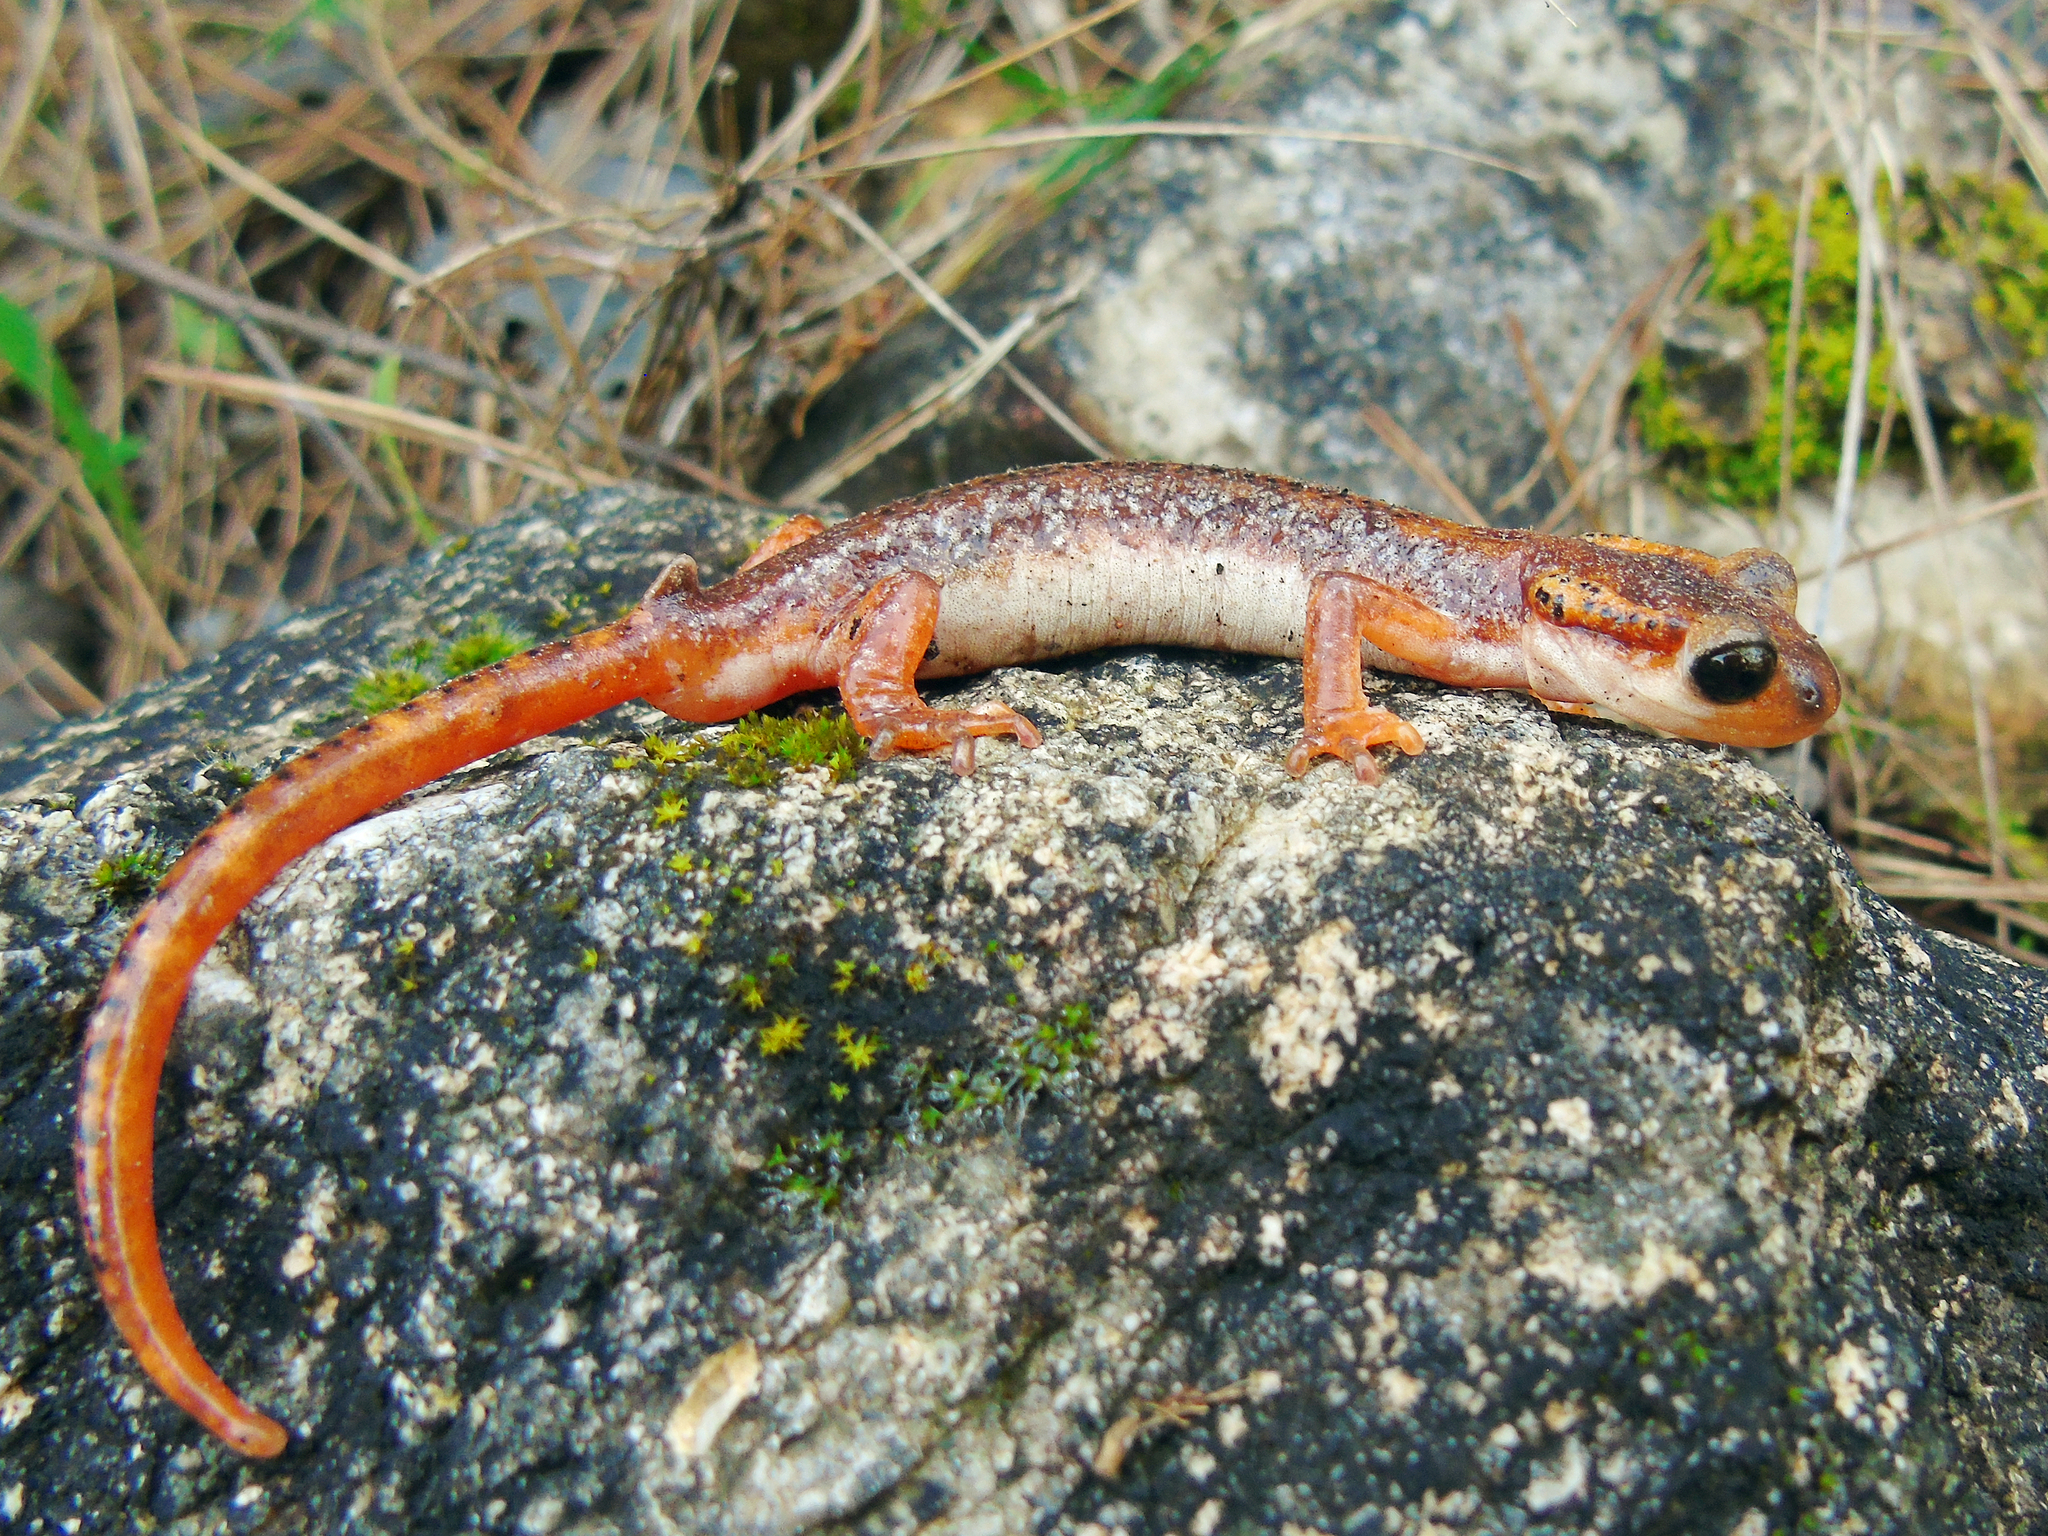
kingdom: Animalia
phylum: Chordata
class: Amphibia
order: Caudata
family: Salamandridae
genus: Lyciasalamandra
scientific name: Lyciasalamandra billae
